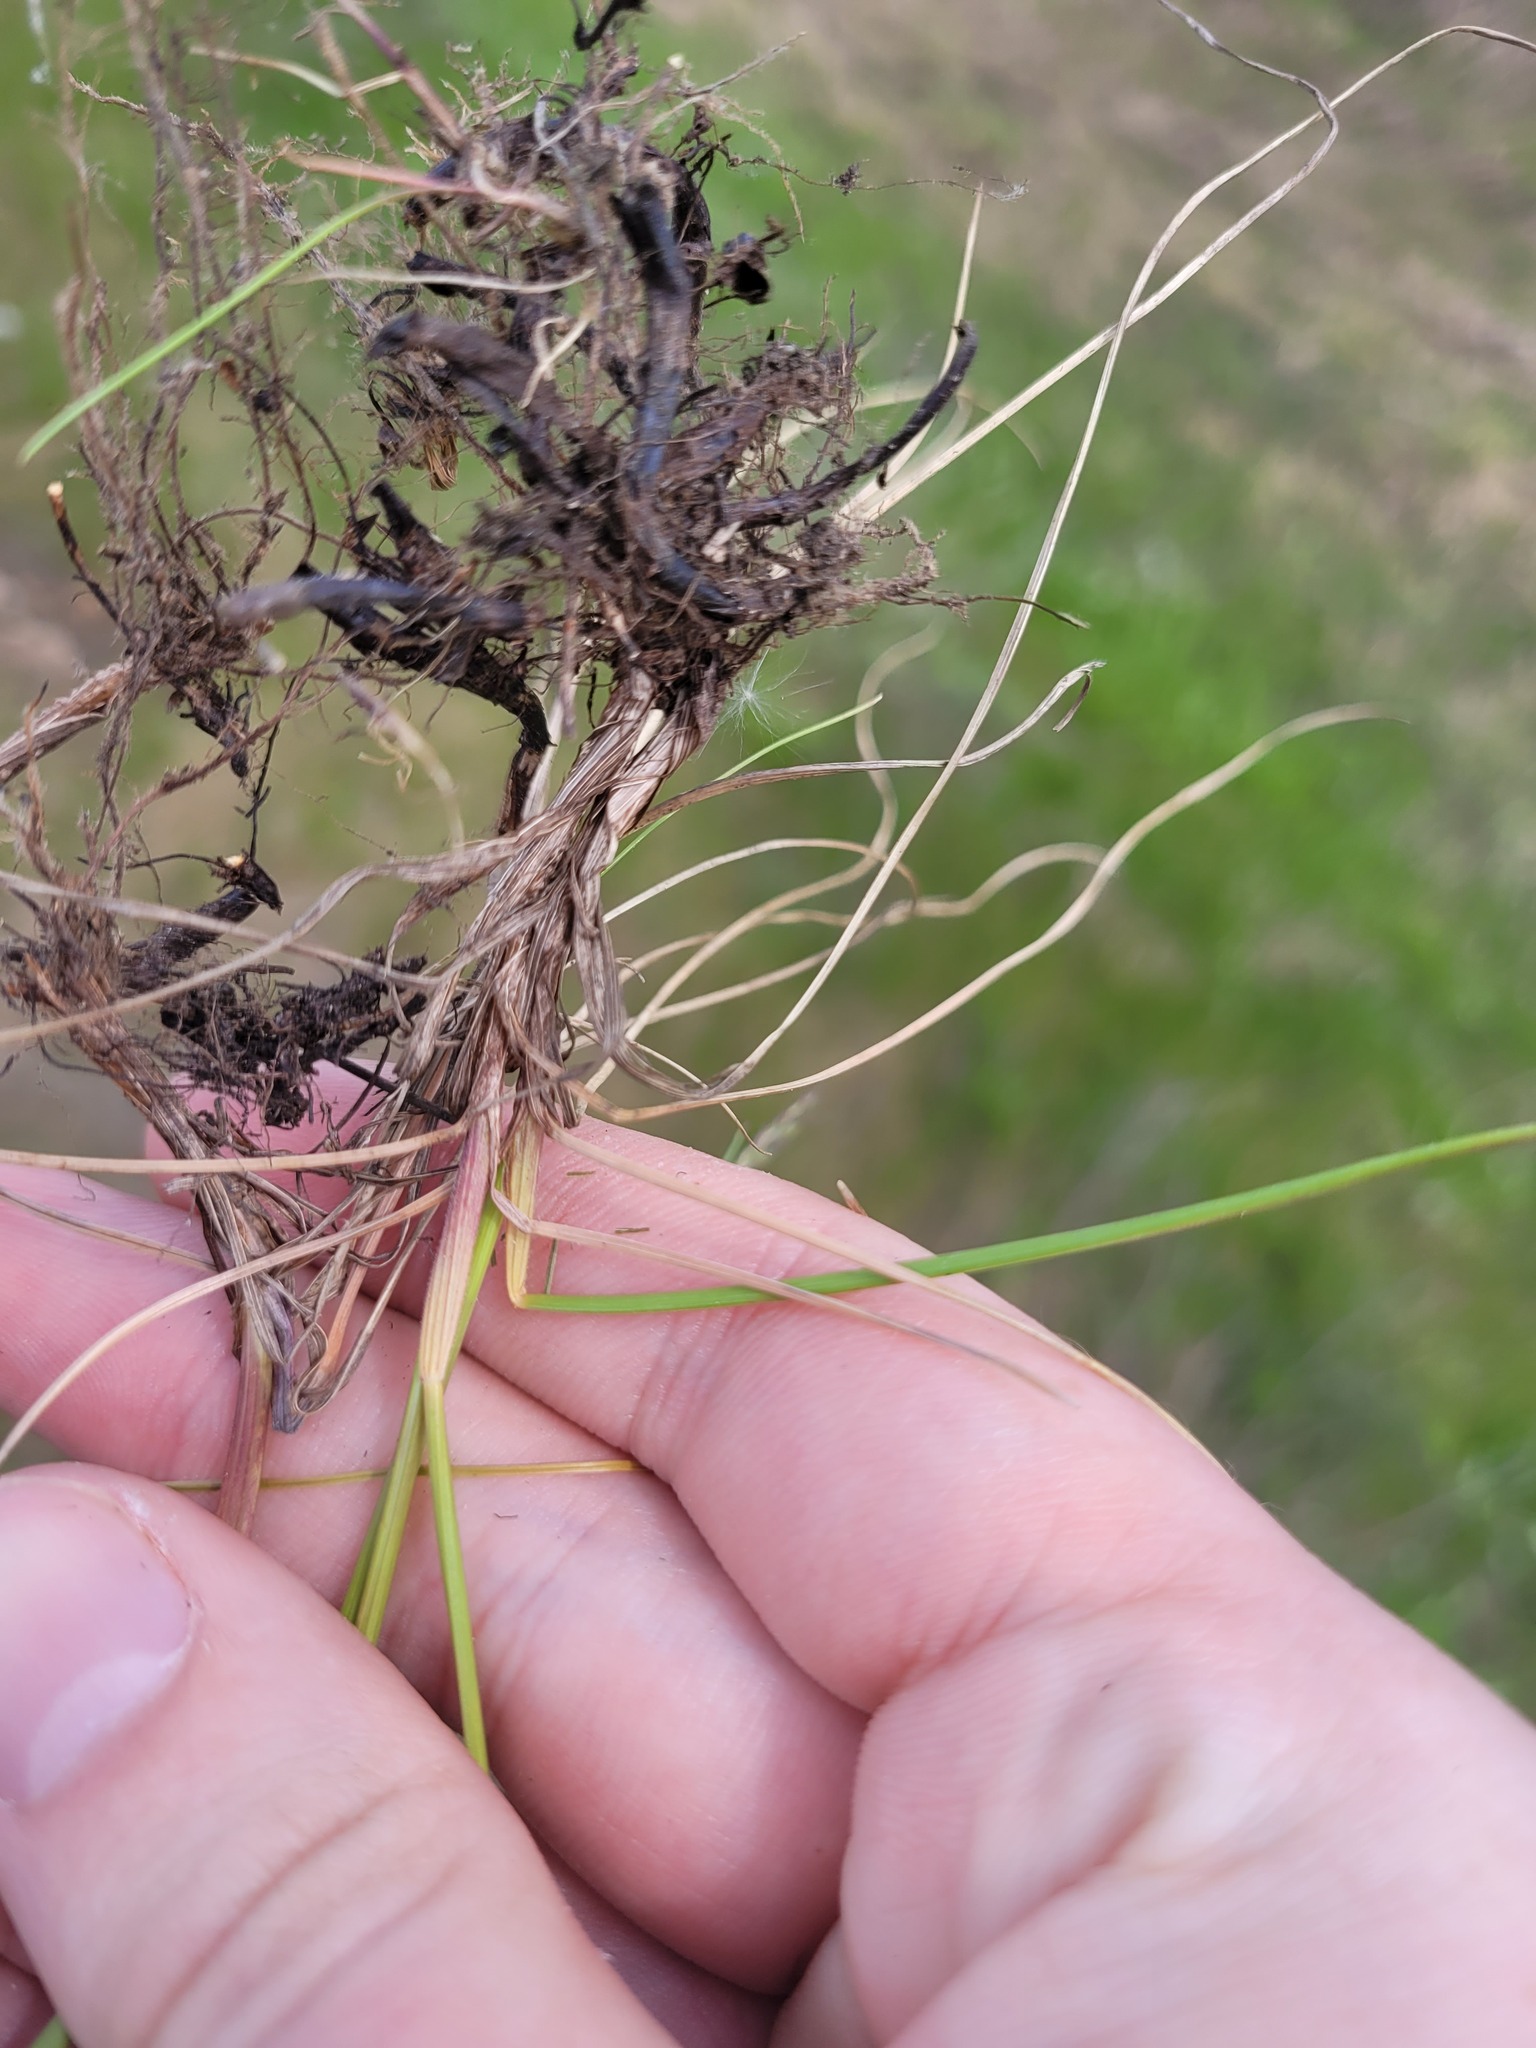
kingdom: Plantae
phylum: Tracheophyta
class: Liliopsida
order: Poales
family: Poaceae
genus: Festuca
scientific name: Festuca rubra
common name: Red fescue
